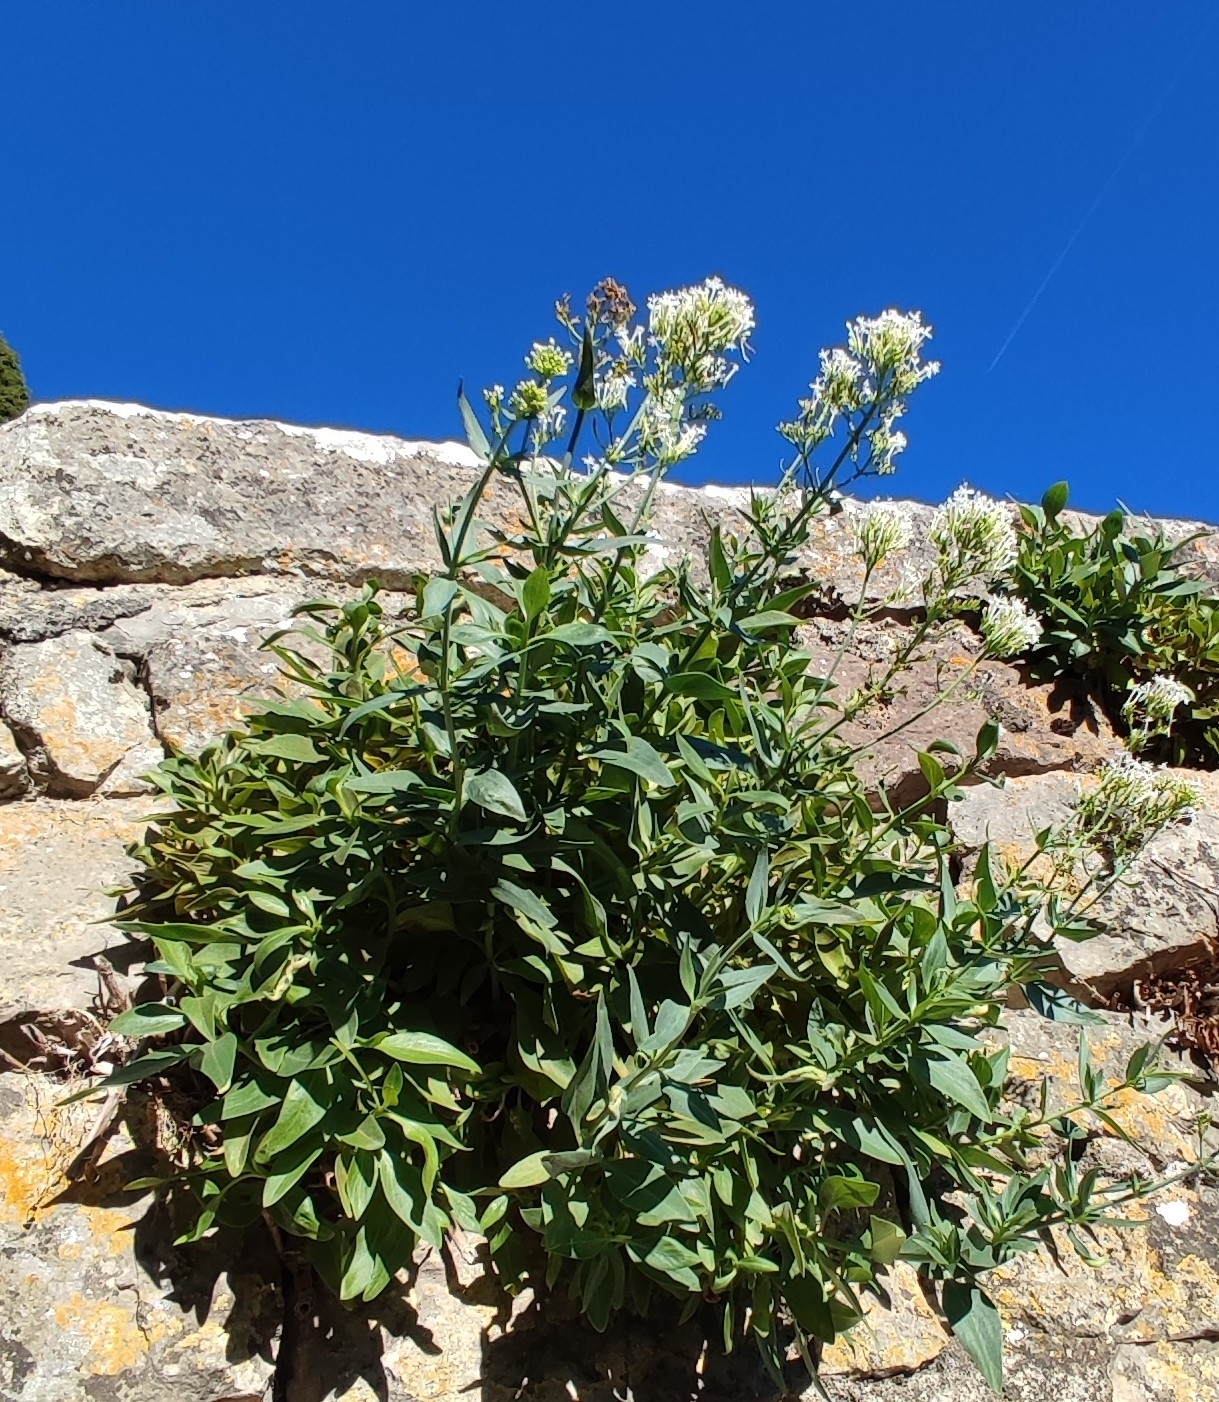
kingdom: Plantae
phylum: Tracheophyta
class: Magnoliopsida
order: Dipsacales
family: Caprifoliaceae
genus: Centranthus
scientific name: Centranthus ruber
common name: Red valerian
